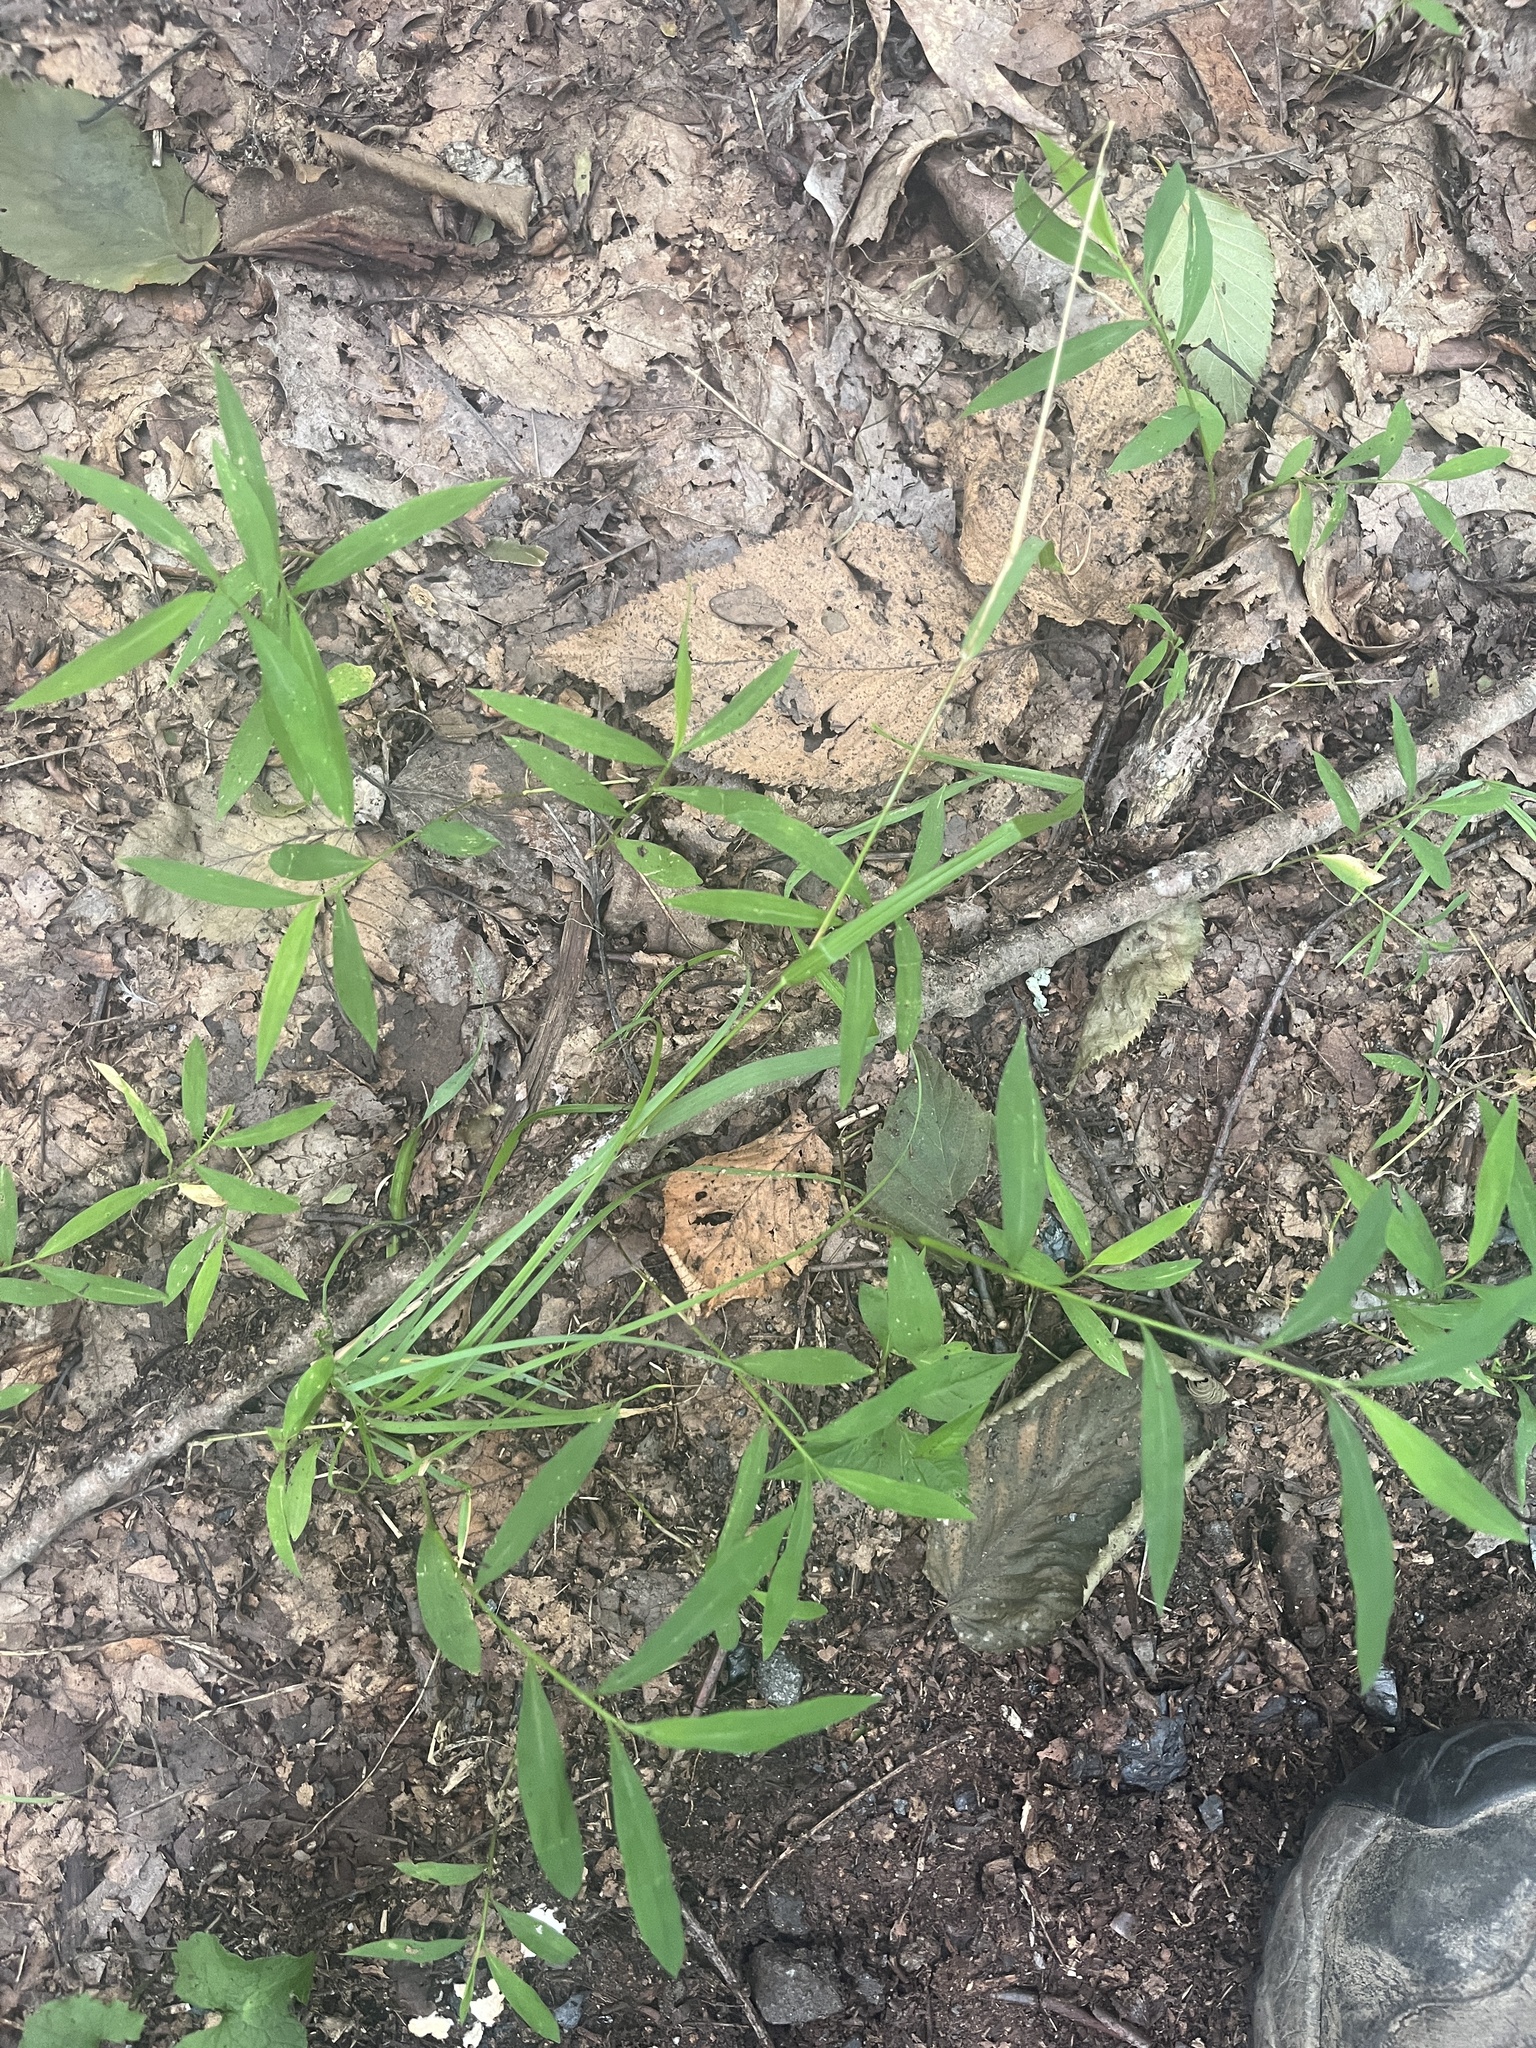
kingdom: Plantae
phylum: Tracheophyta
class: Liliopsida
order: Poales
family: Poaceae
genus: Microstegium
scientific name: Microstegium vimineum
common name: Japanese stiltgrass
